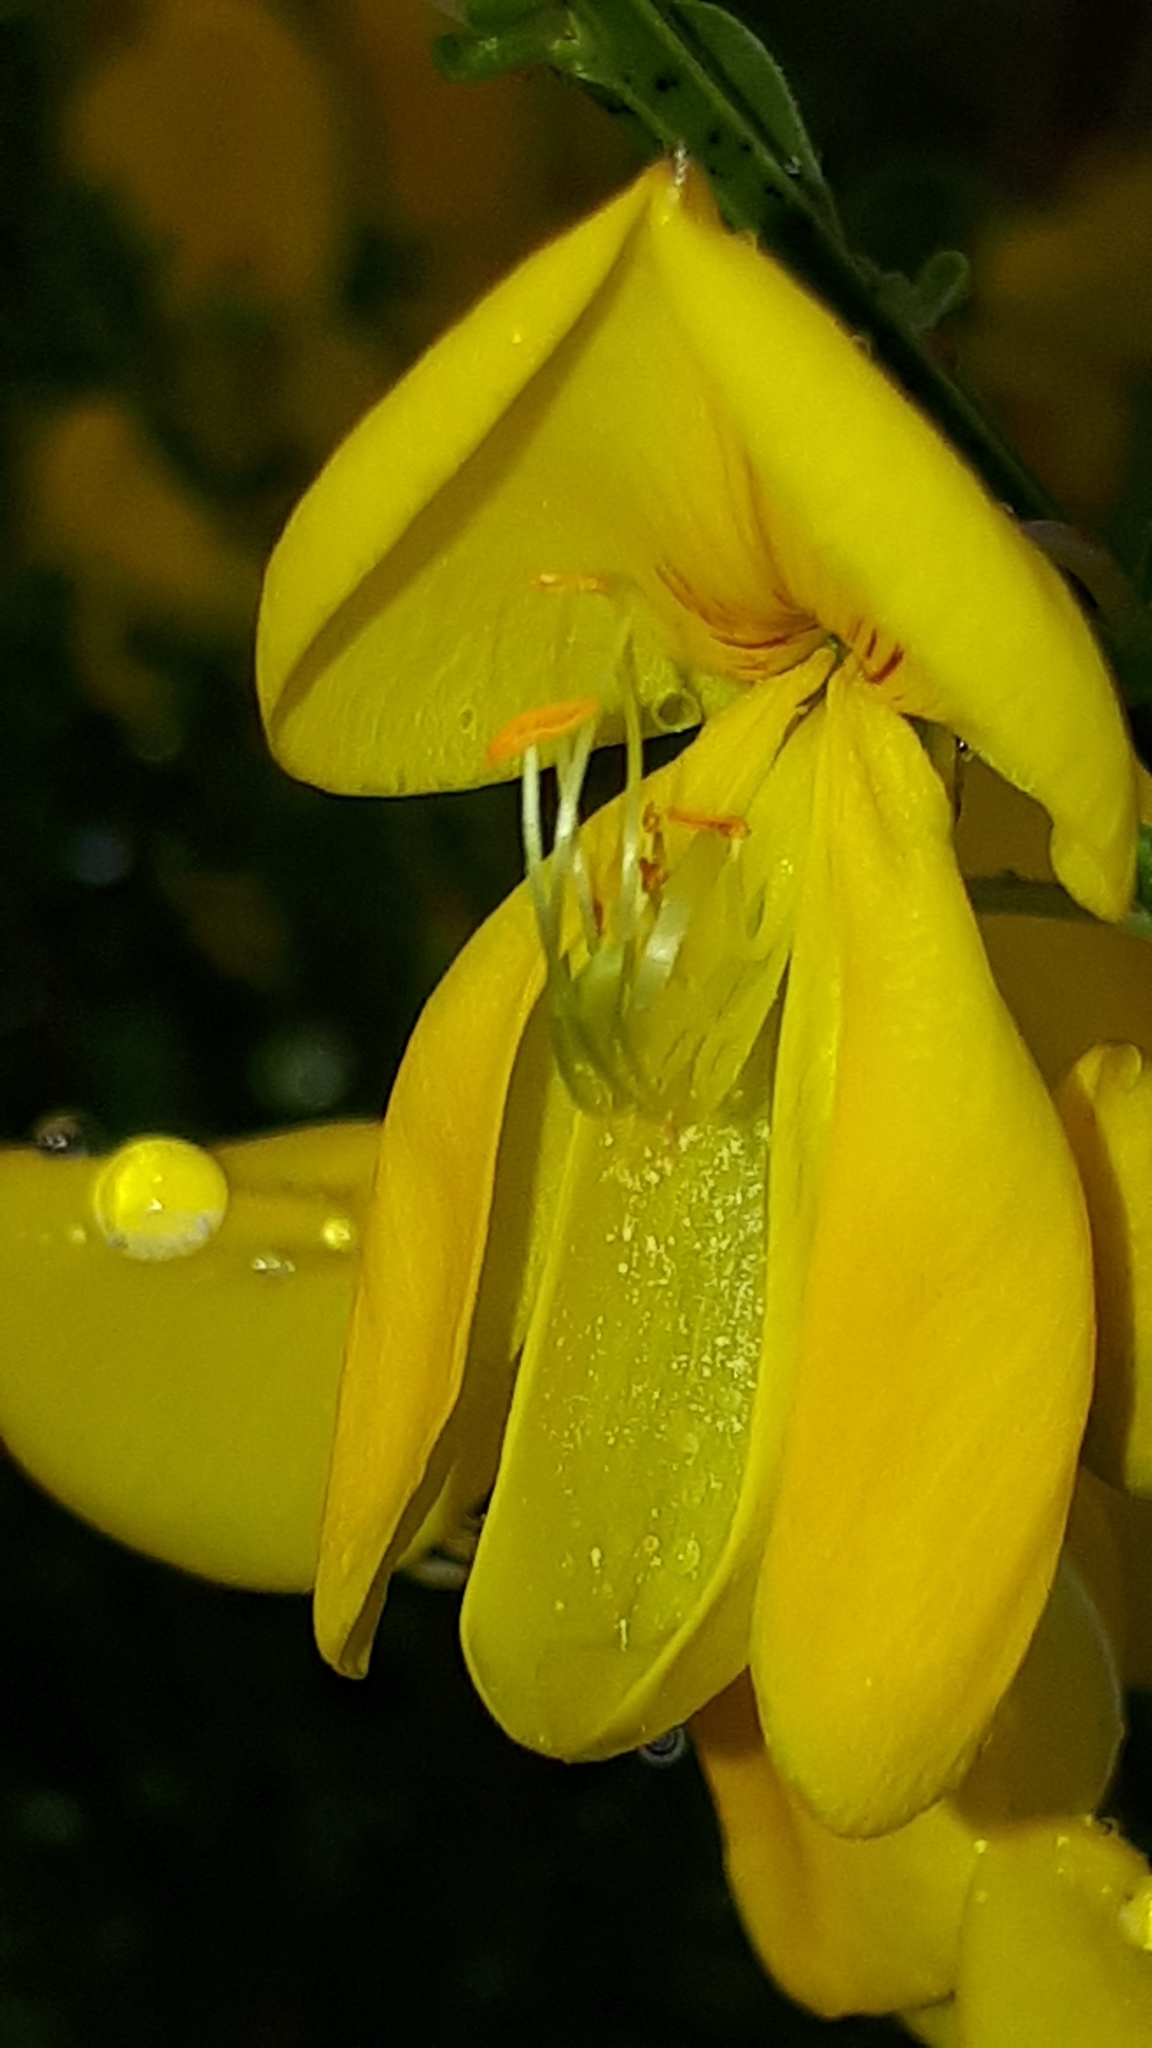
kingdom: Plantae
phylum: Tracheophyta
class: Magnoliopsida
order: Fabales
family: Fabaceae
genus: Cytisus
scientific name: Cytisus scoparius
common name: Scotch broom
